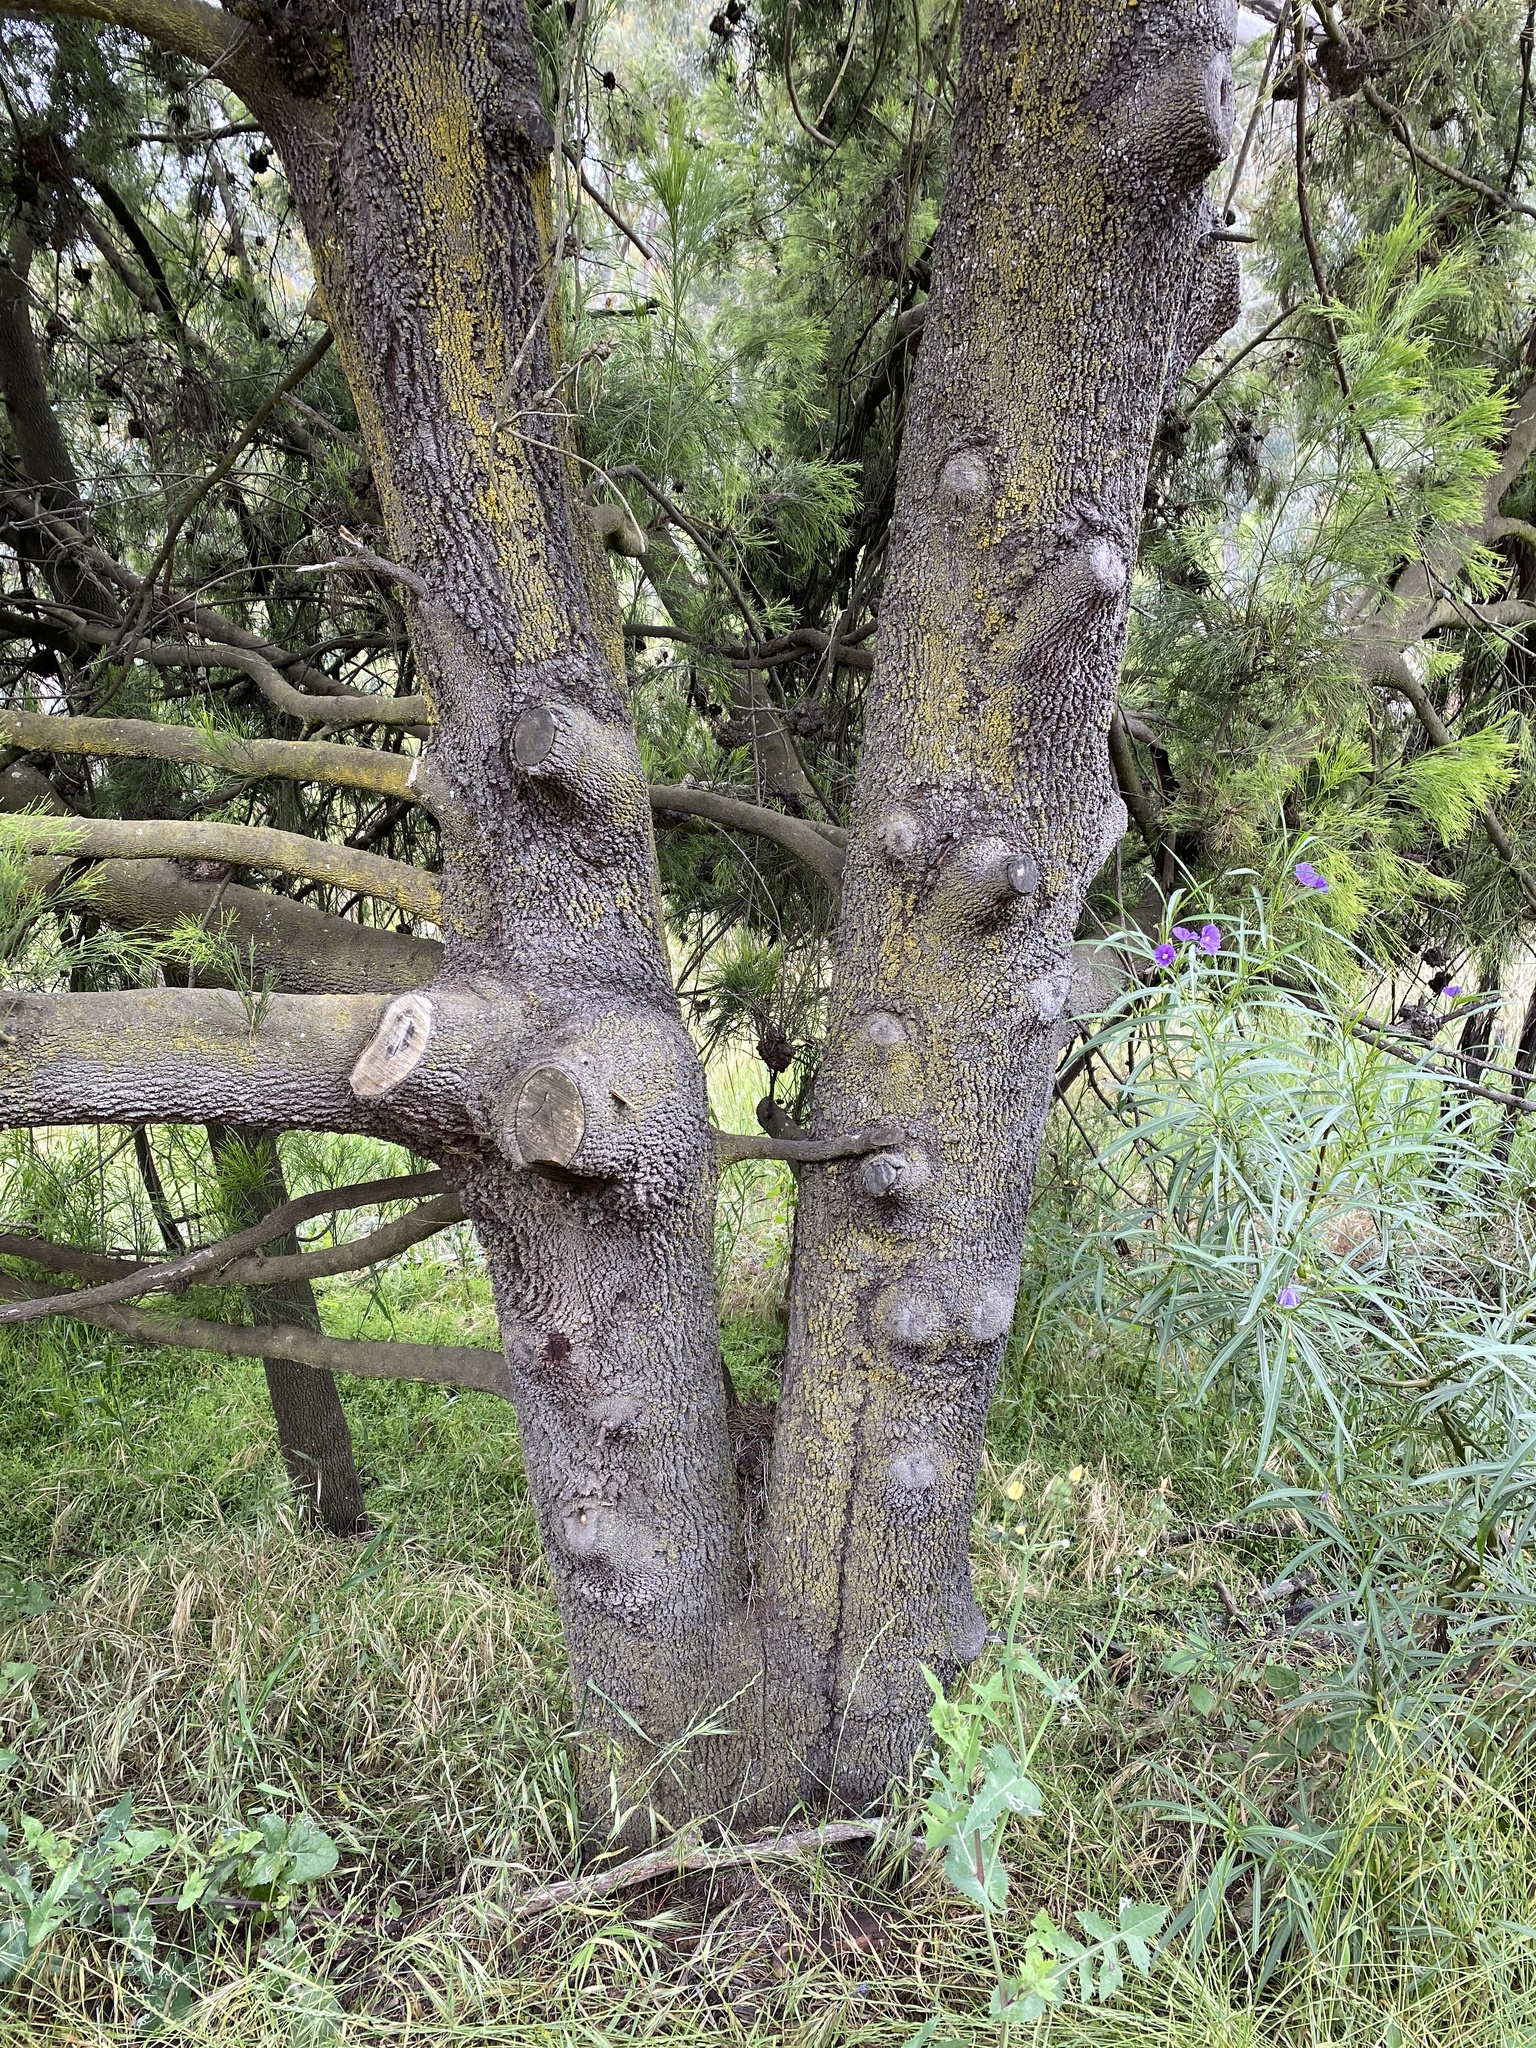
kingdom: Plantae
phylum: Tracheophyta
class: Magnoliopsida
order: Santalales
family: Santalaceae
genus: Exocarpos
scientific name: Exocarpos cupressiformis
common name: Cherry ballart
